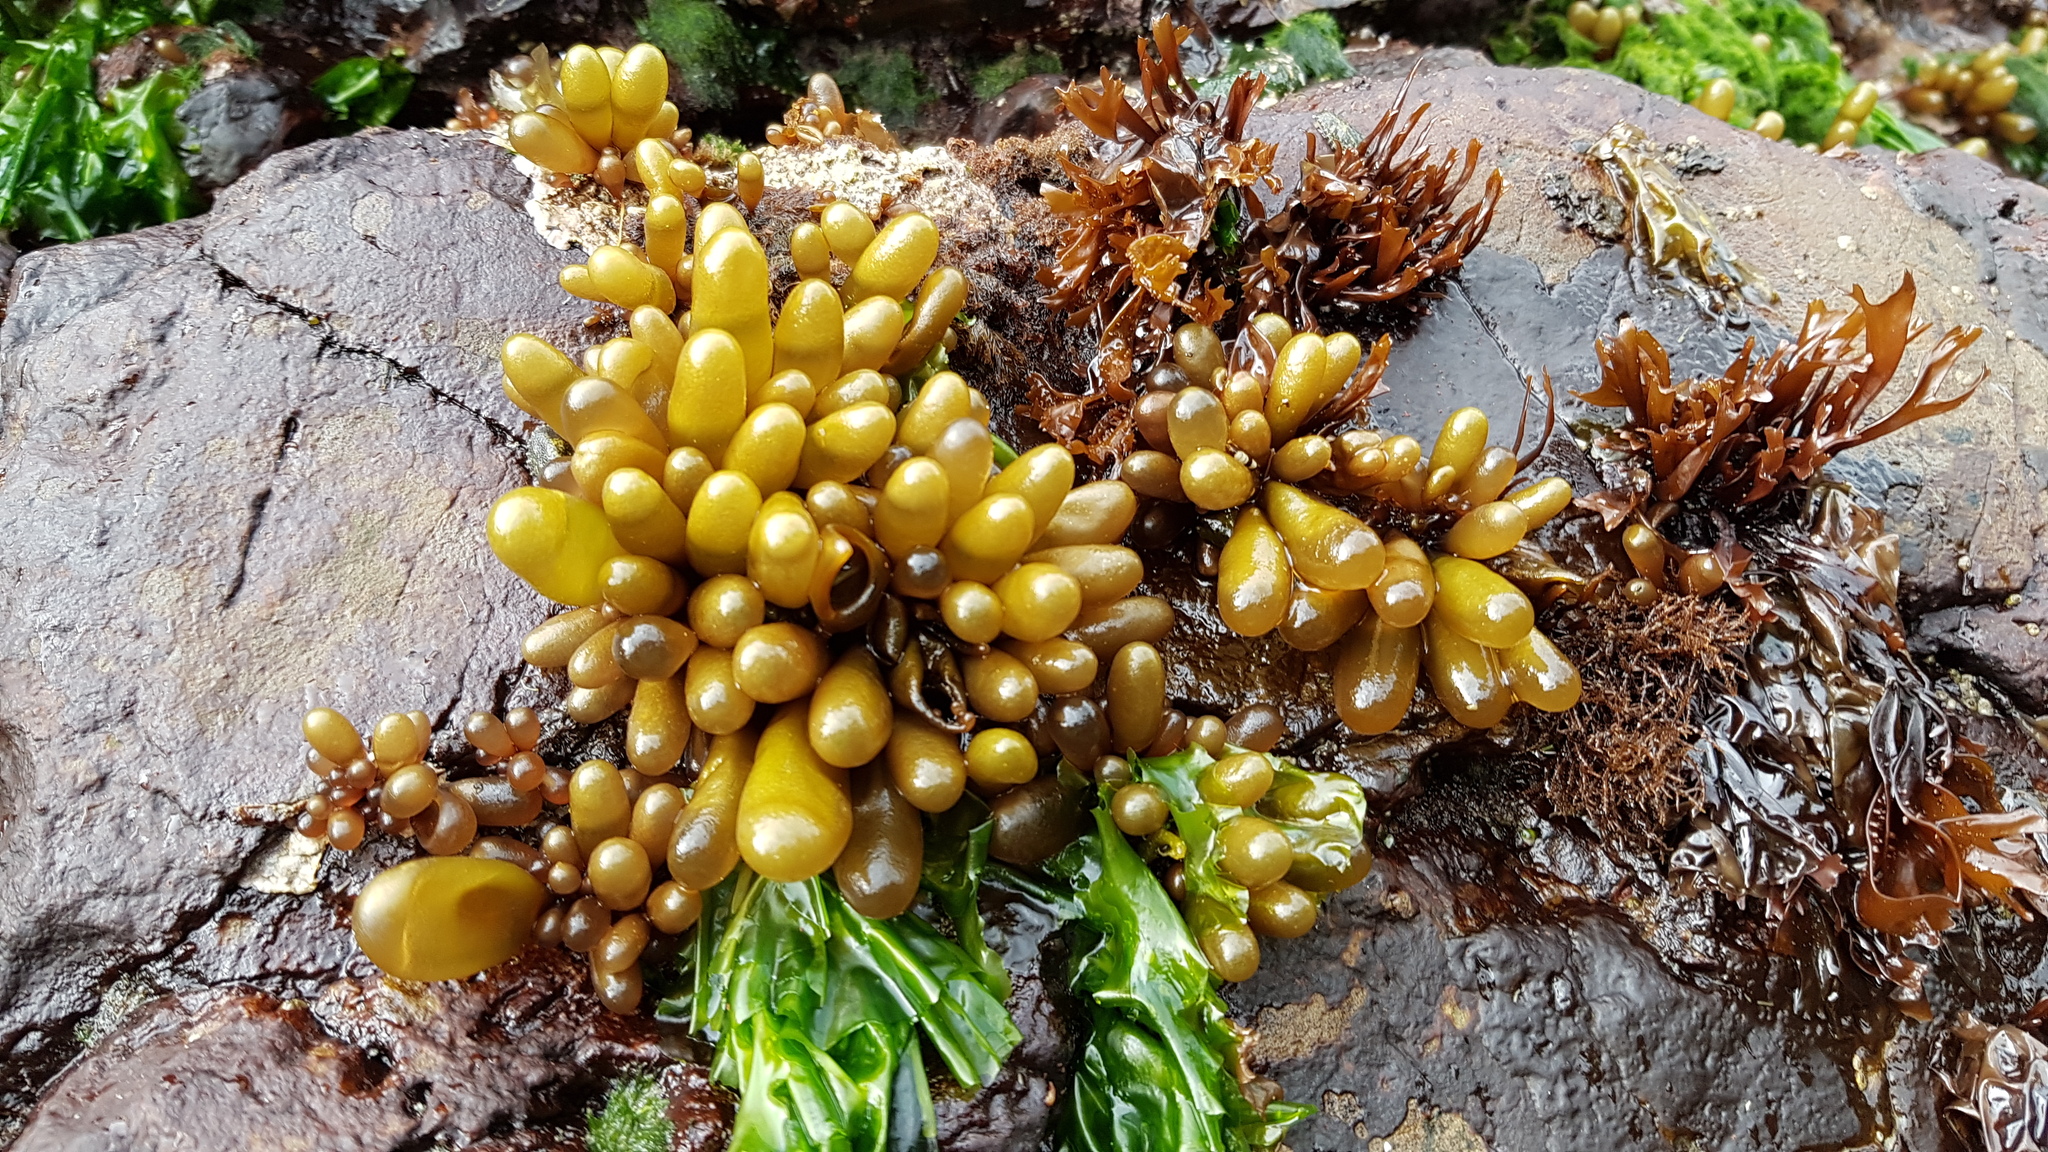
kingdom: Plantae
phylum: Rhodophyta
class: Florideophyceae
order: Palmariales
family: Palmariaceae
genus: Halosaccion
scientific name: Halosaccion glandiforme
